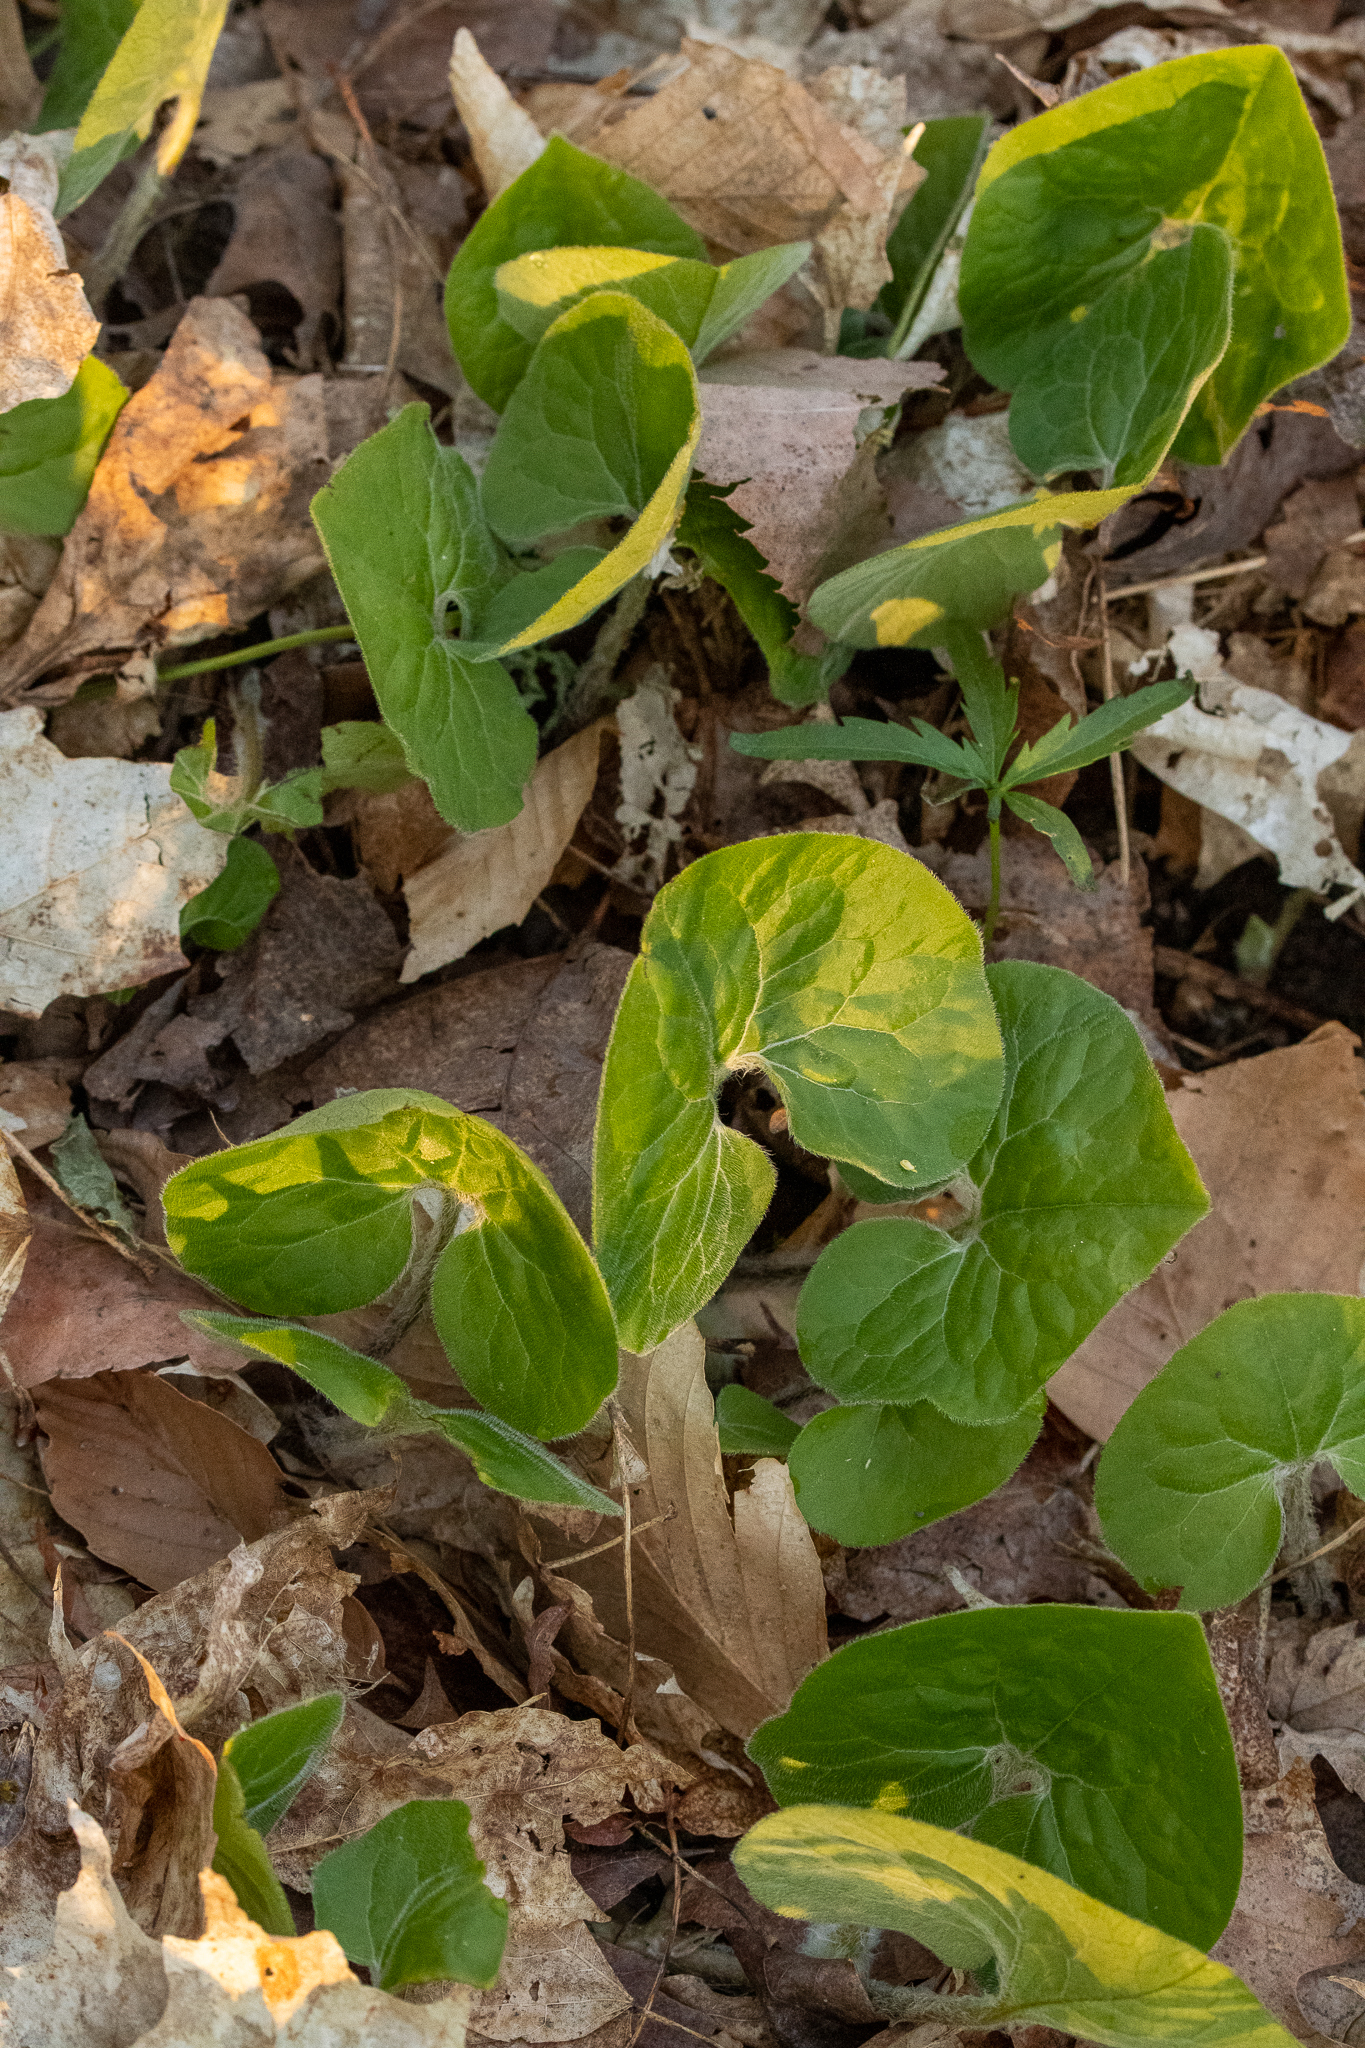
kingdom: Plantae
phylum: Tracheophyta
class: Magnoliopsida
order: Piperales
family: Aristolochiaceae
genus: Asarum
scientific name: Asarum canadense
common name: Wild ginger
